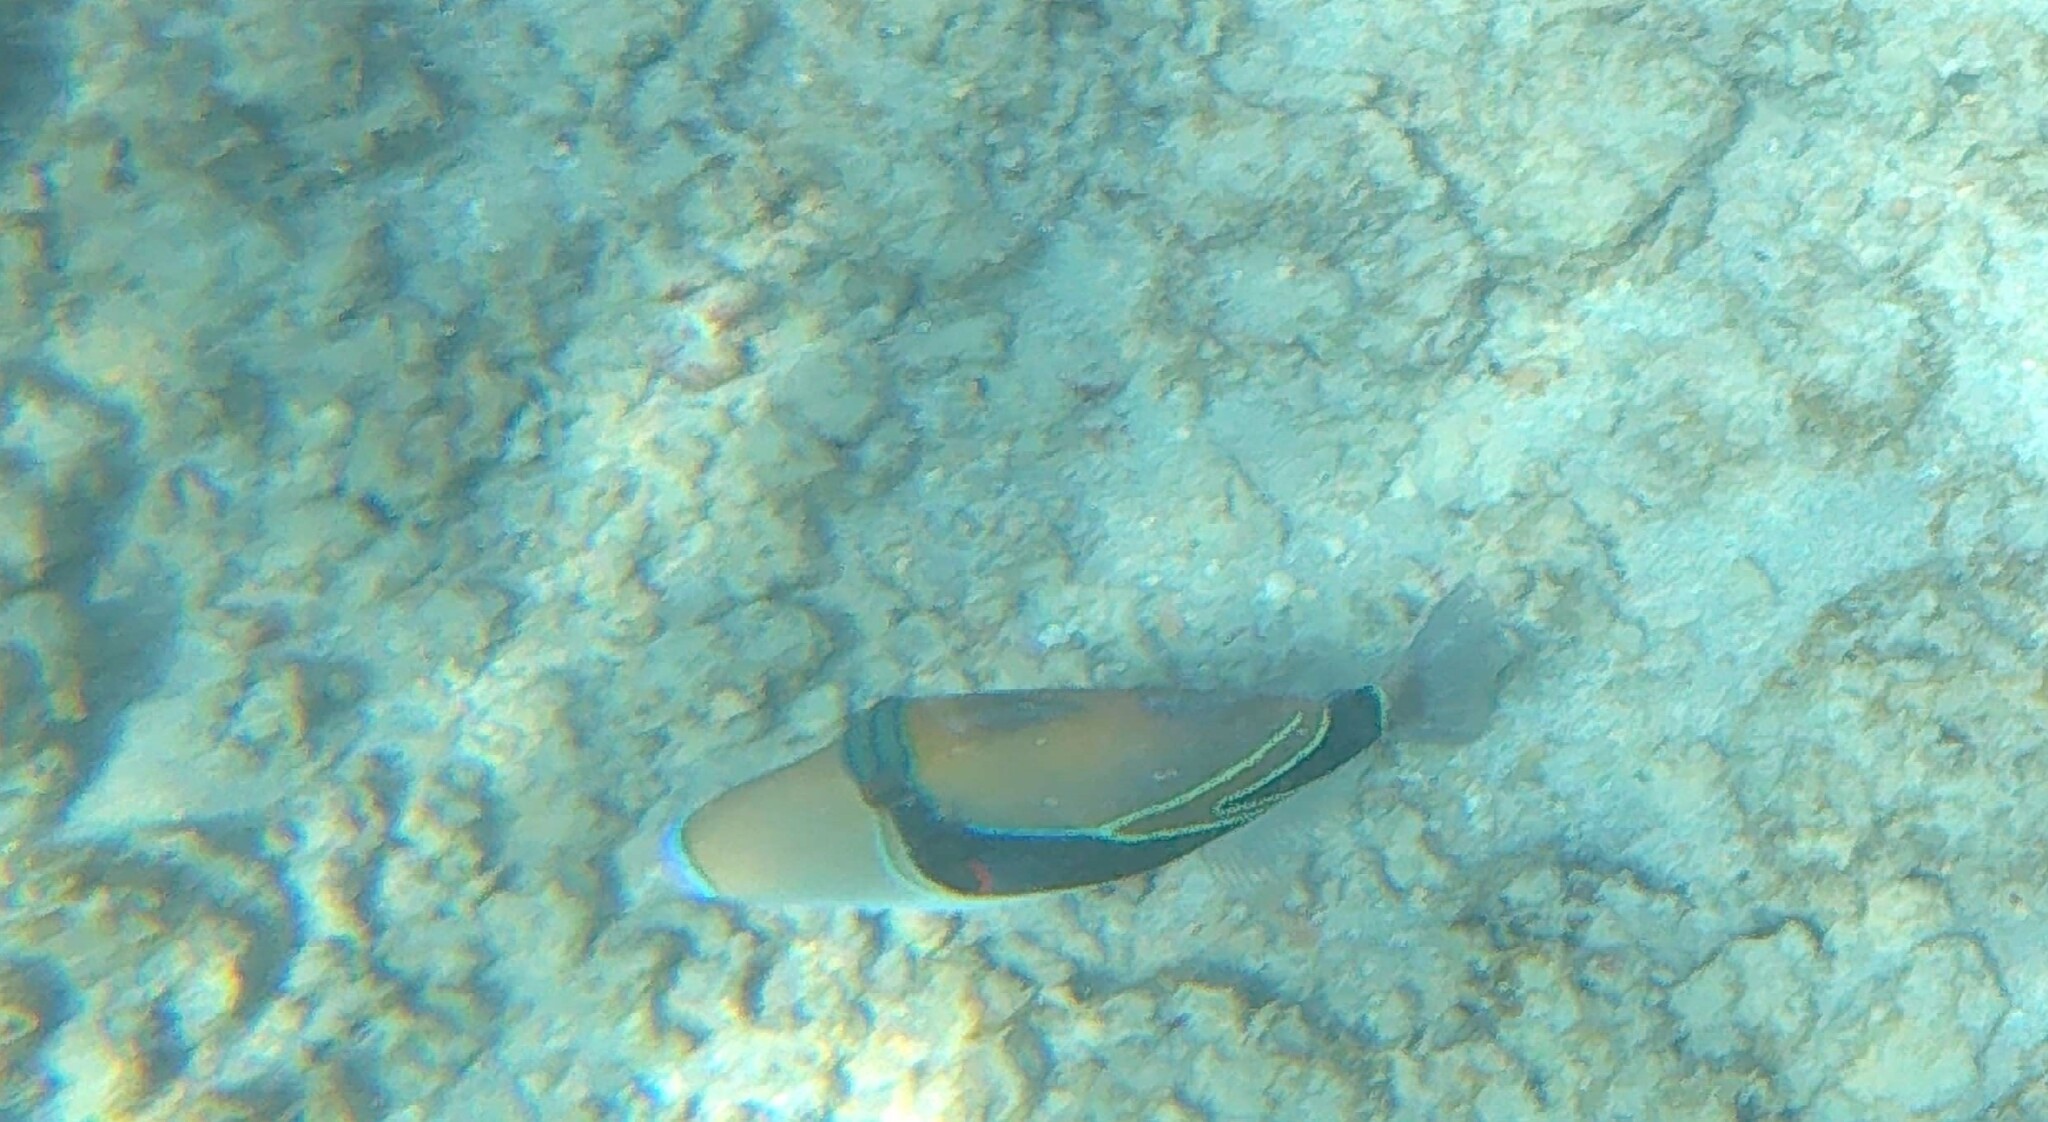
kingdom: Animalia
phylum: Chordata
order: Tetraodontiformes
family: Balistidae
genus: Rhinecanthus
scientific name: Rhinecanthus rectangulus
